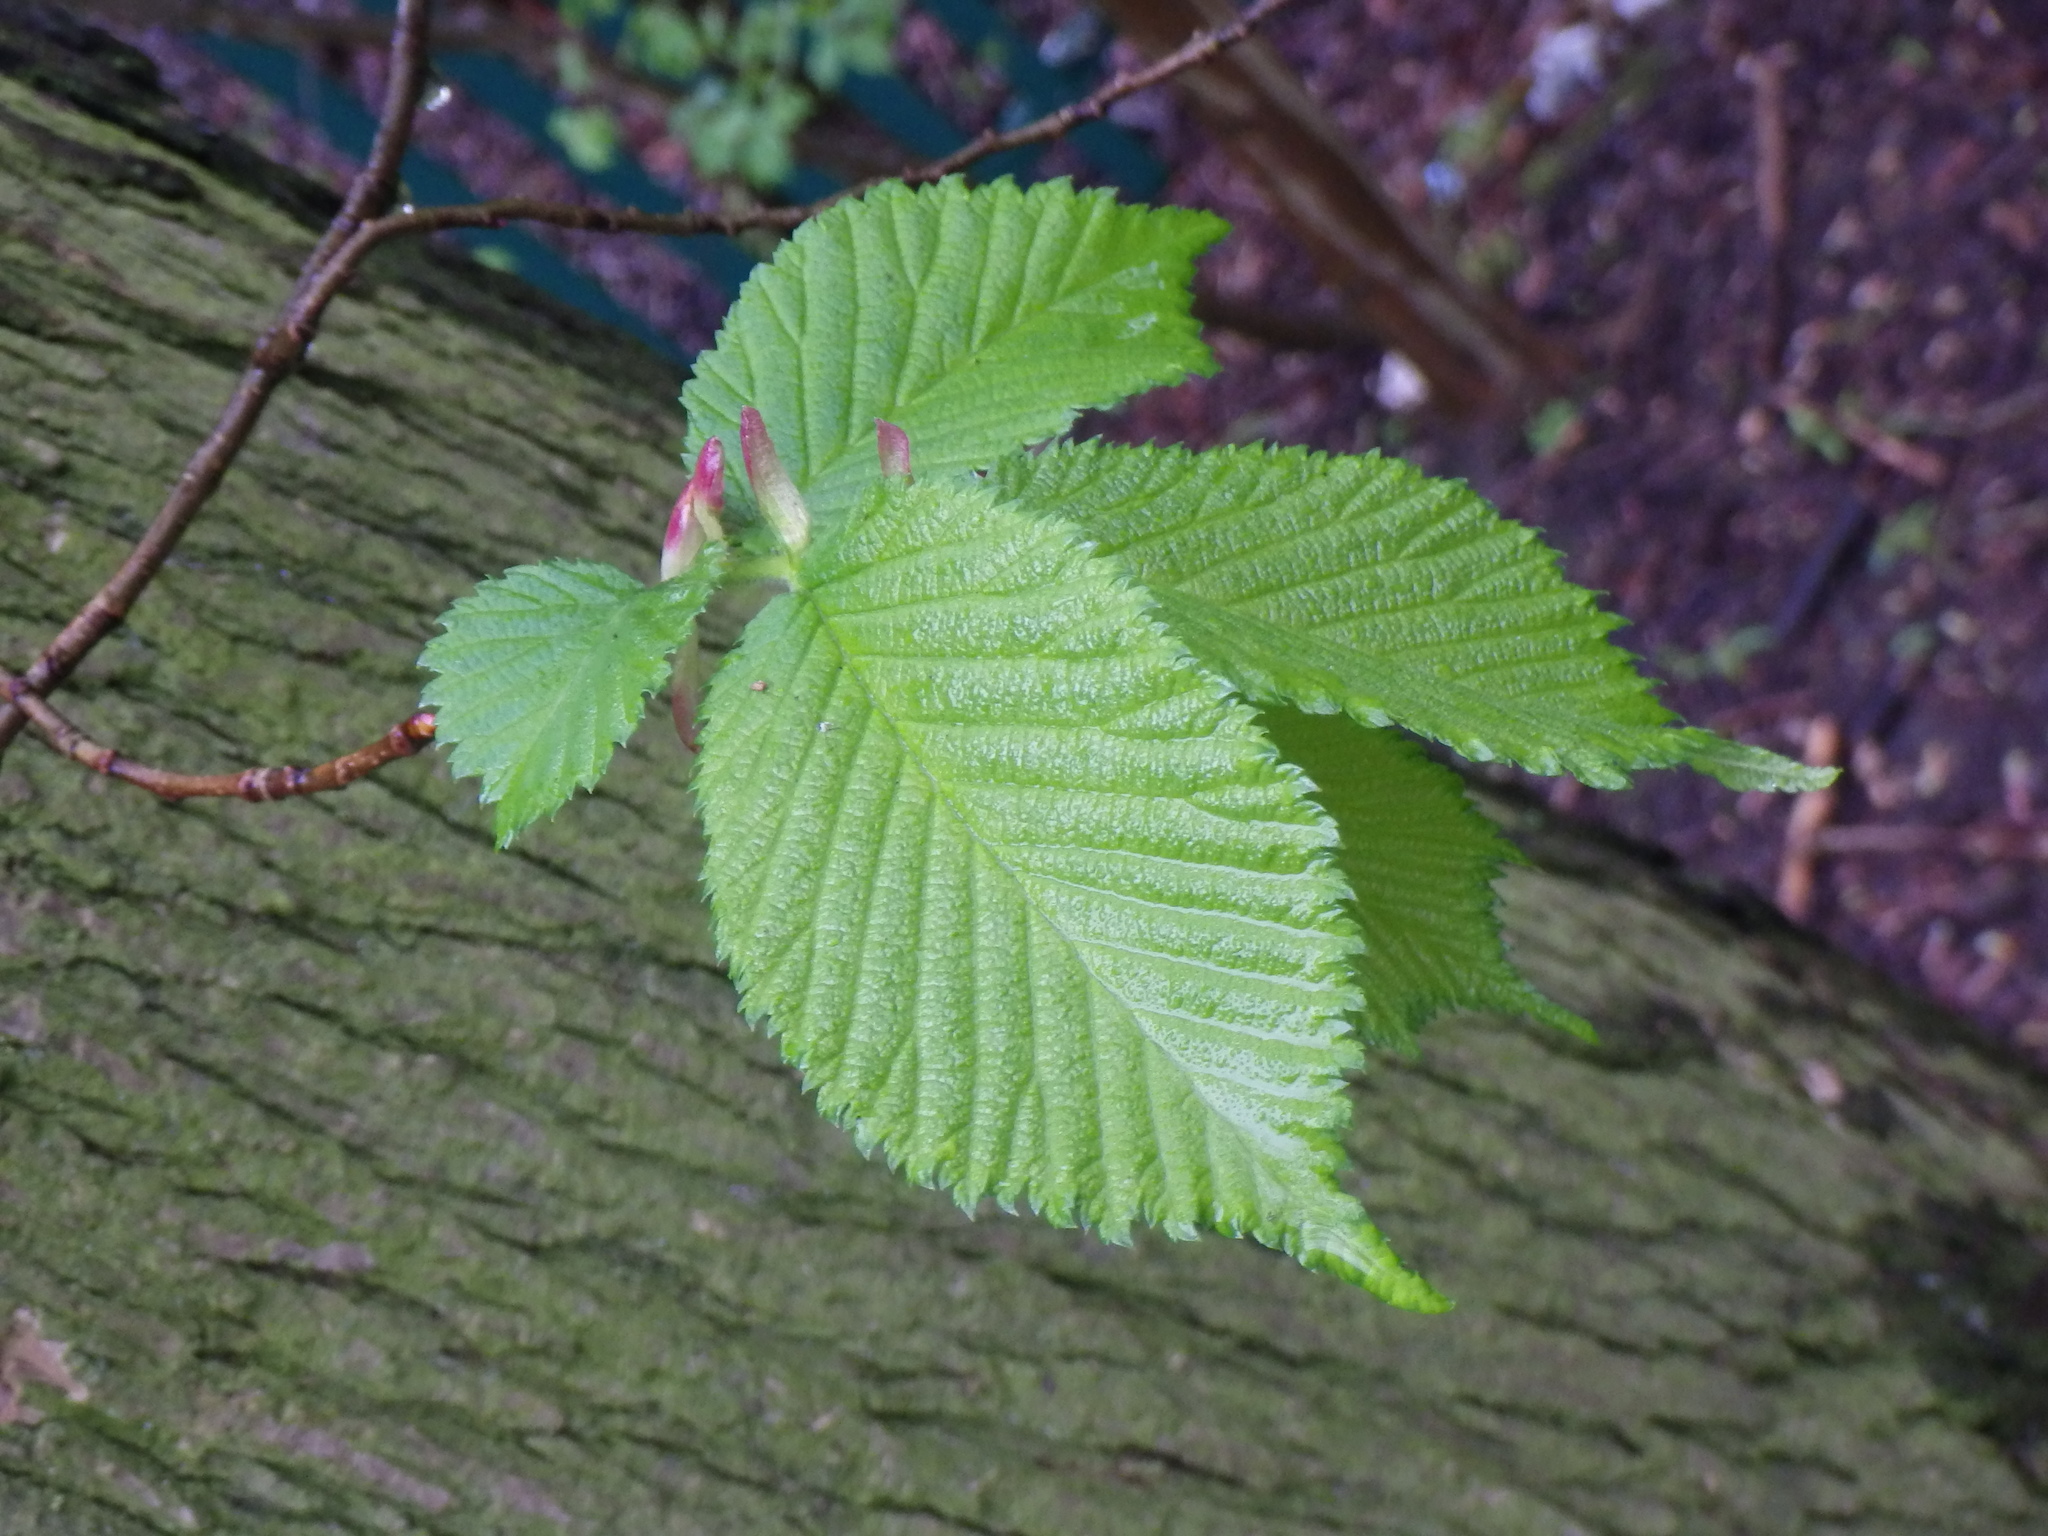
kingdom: Plantae
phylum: Tracheophyta
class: Magnoliopsida
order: Rosales
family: Ulmaceae
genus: Ulmus
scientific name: Ulmus glabra
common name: Wych elm
